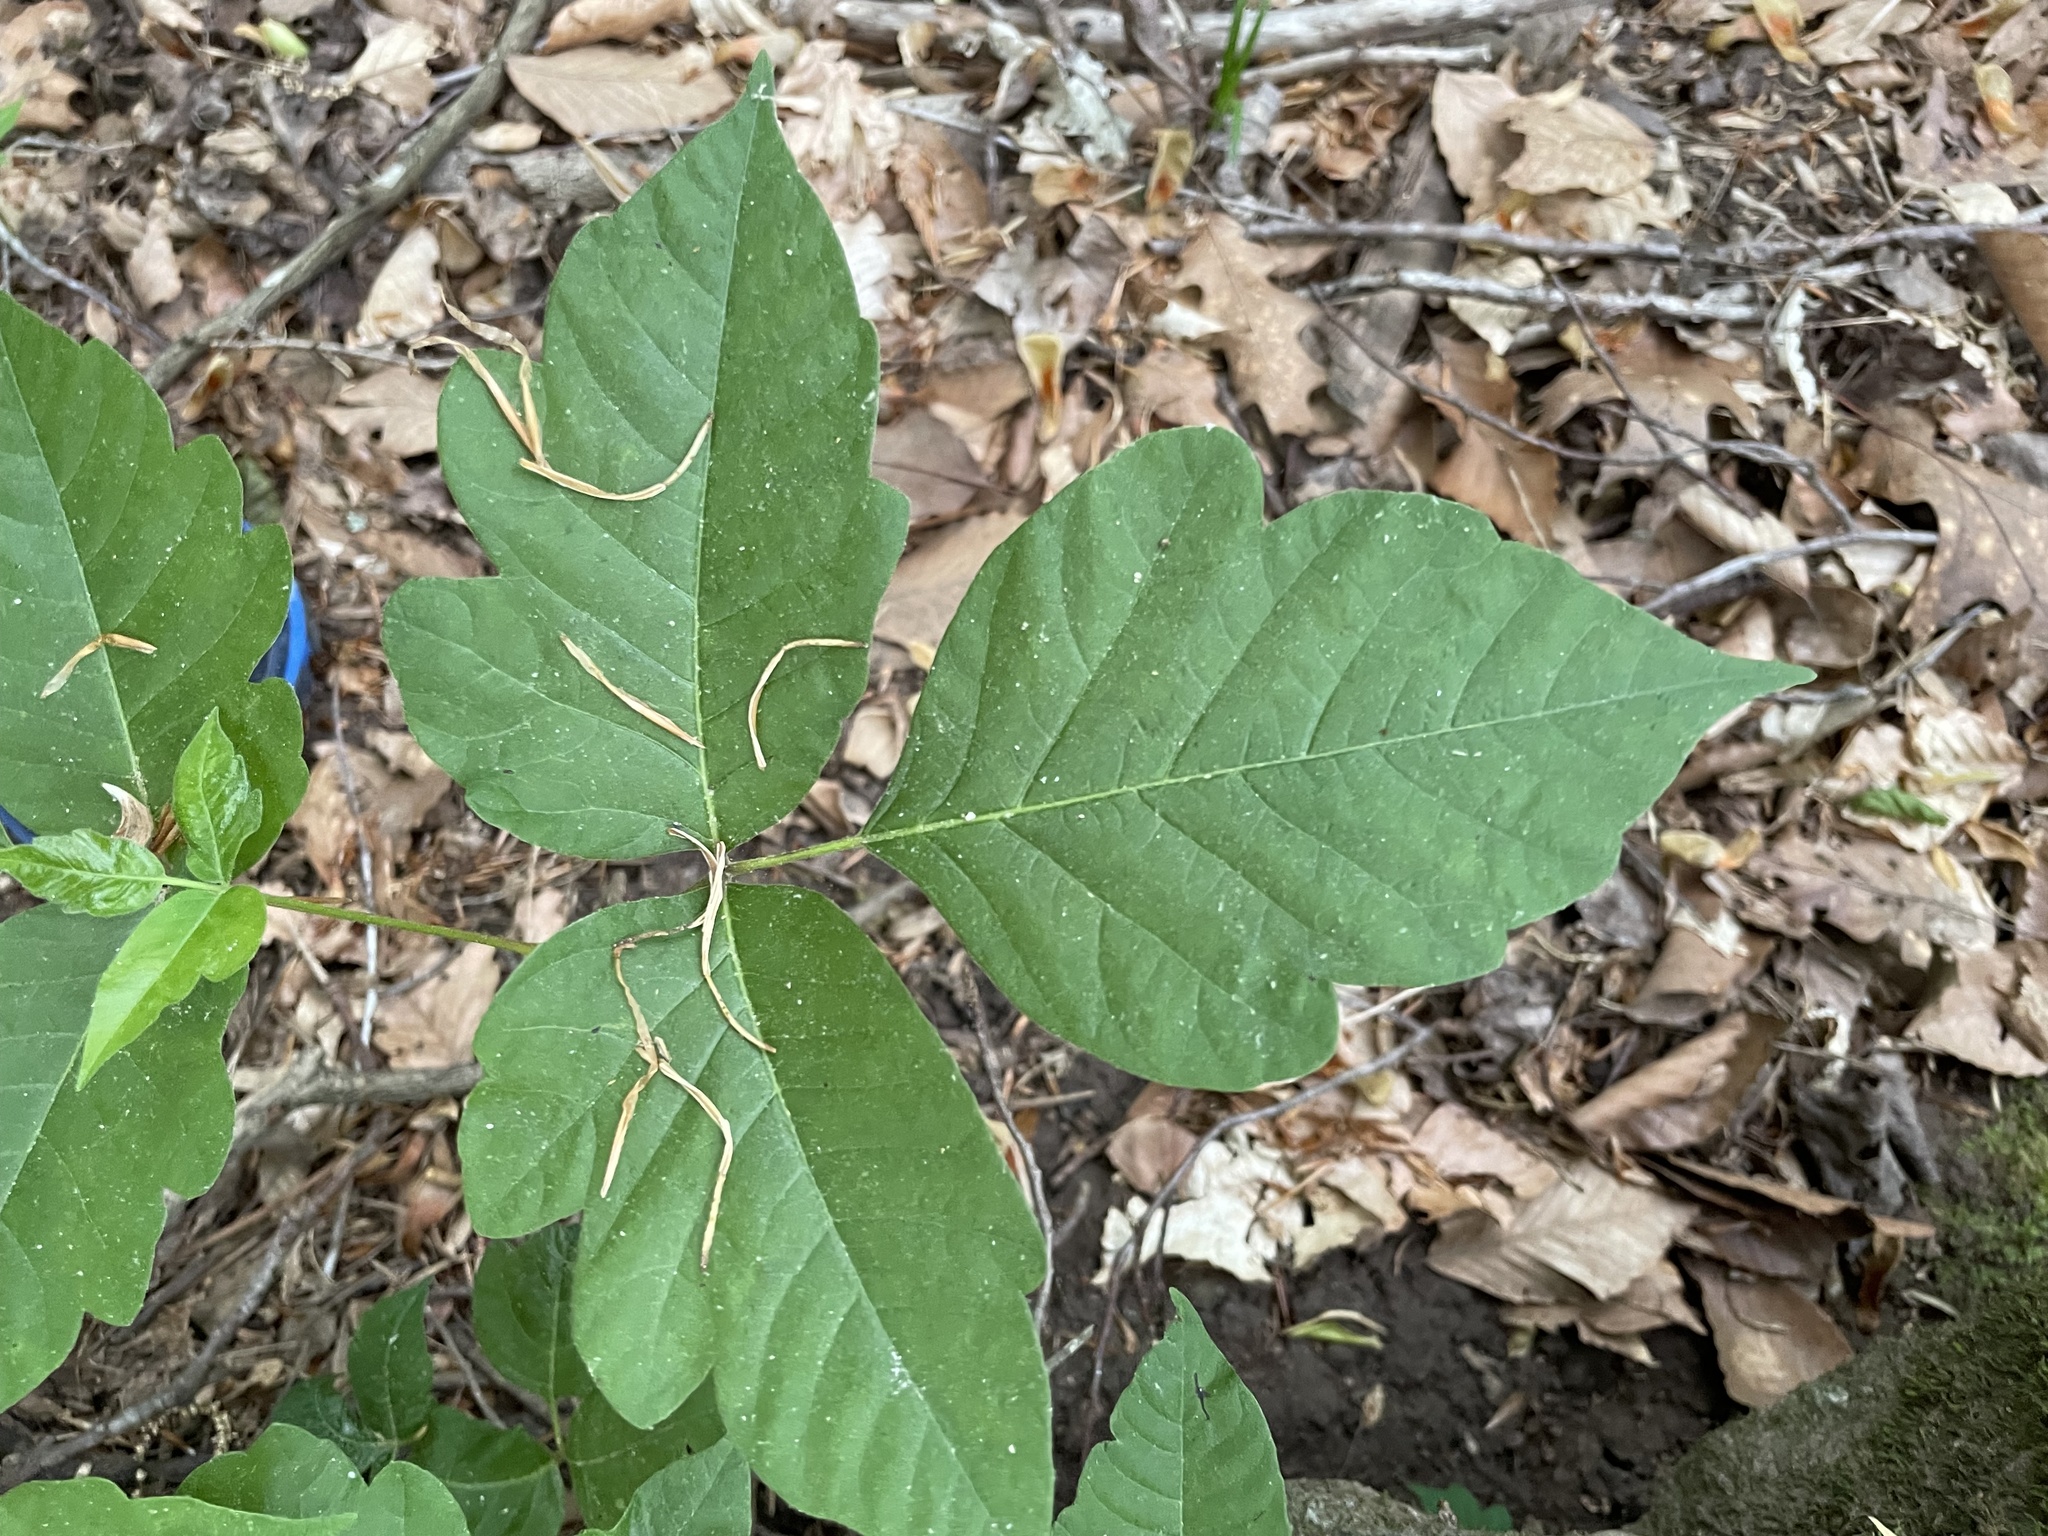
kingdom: Plantae
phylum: Tracheophyta
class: Magnoliopsida
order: Sapindales
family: Anacardiaceae
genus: Toxicodendron
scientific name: Toxicodendron radicans
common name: Poison ivy
